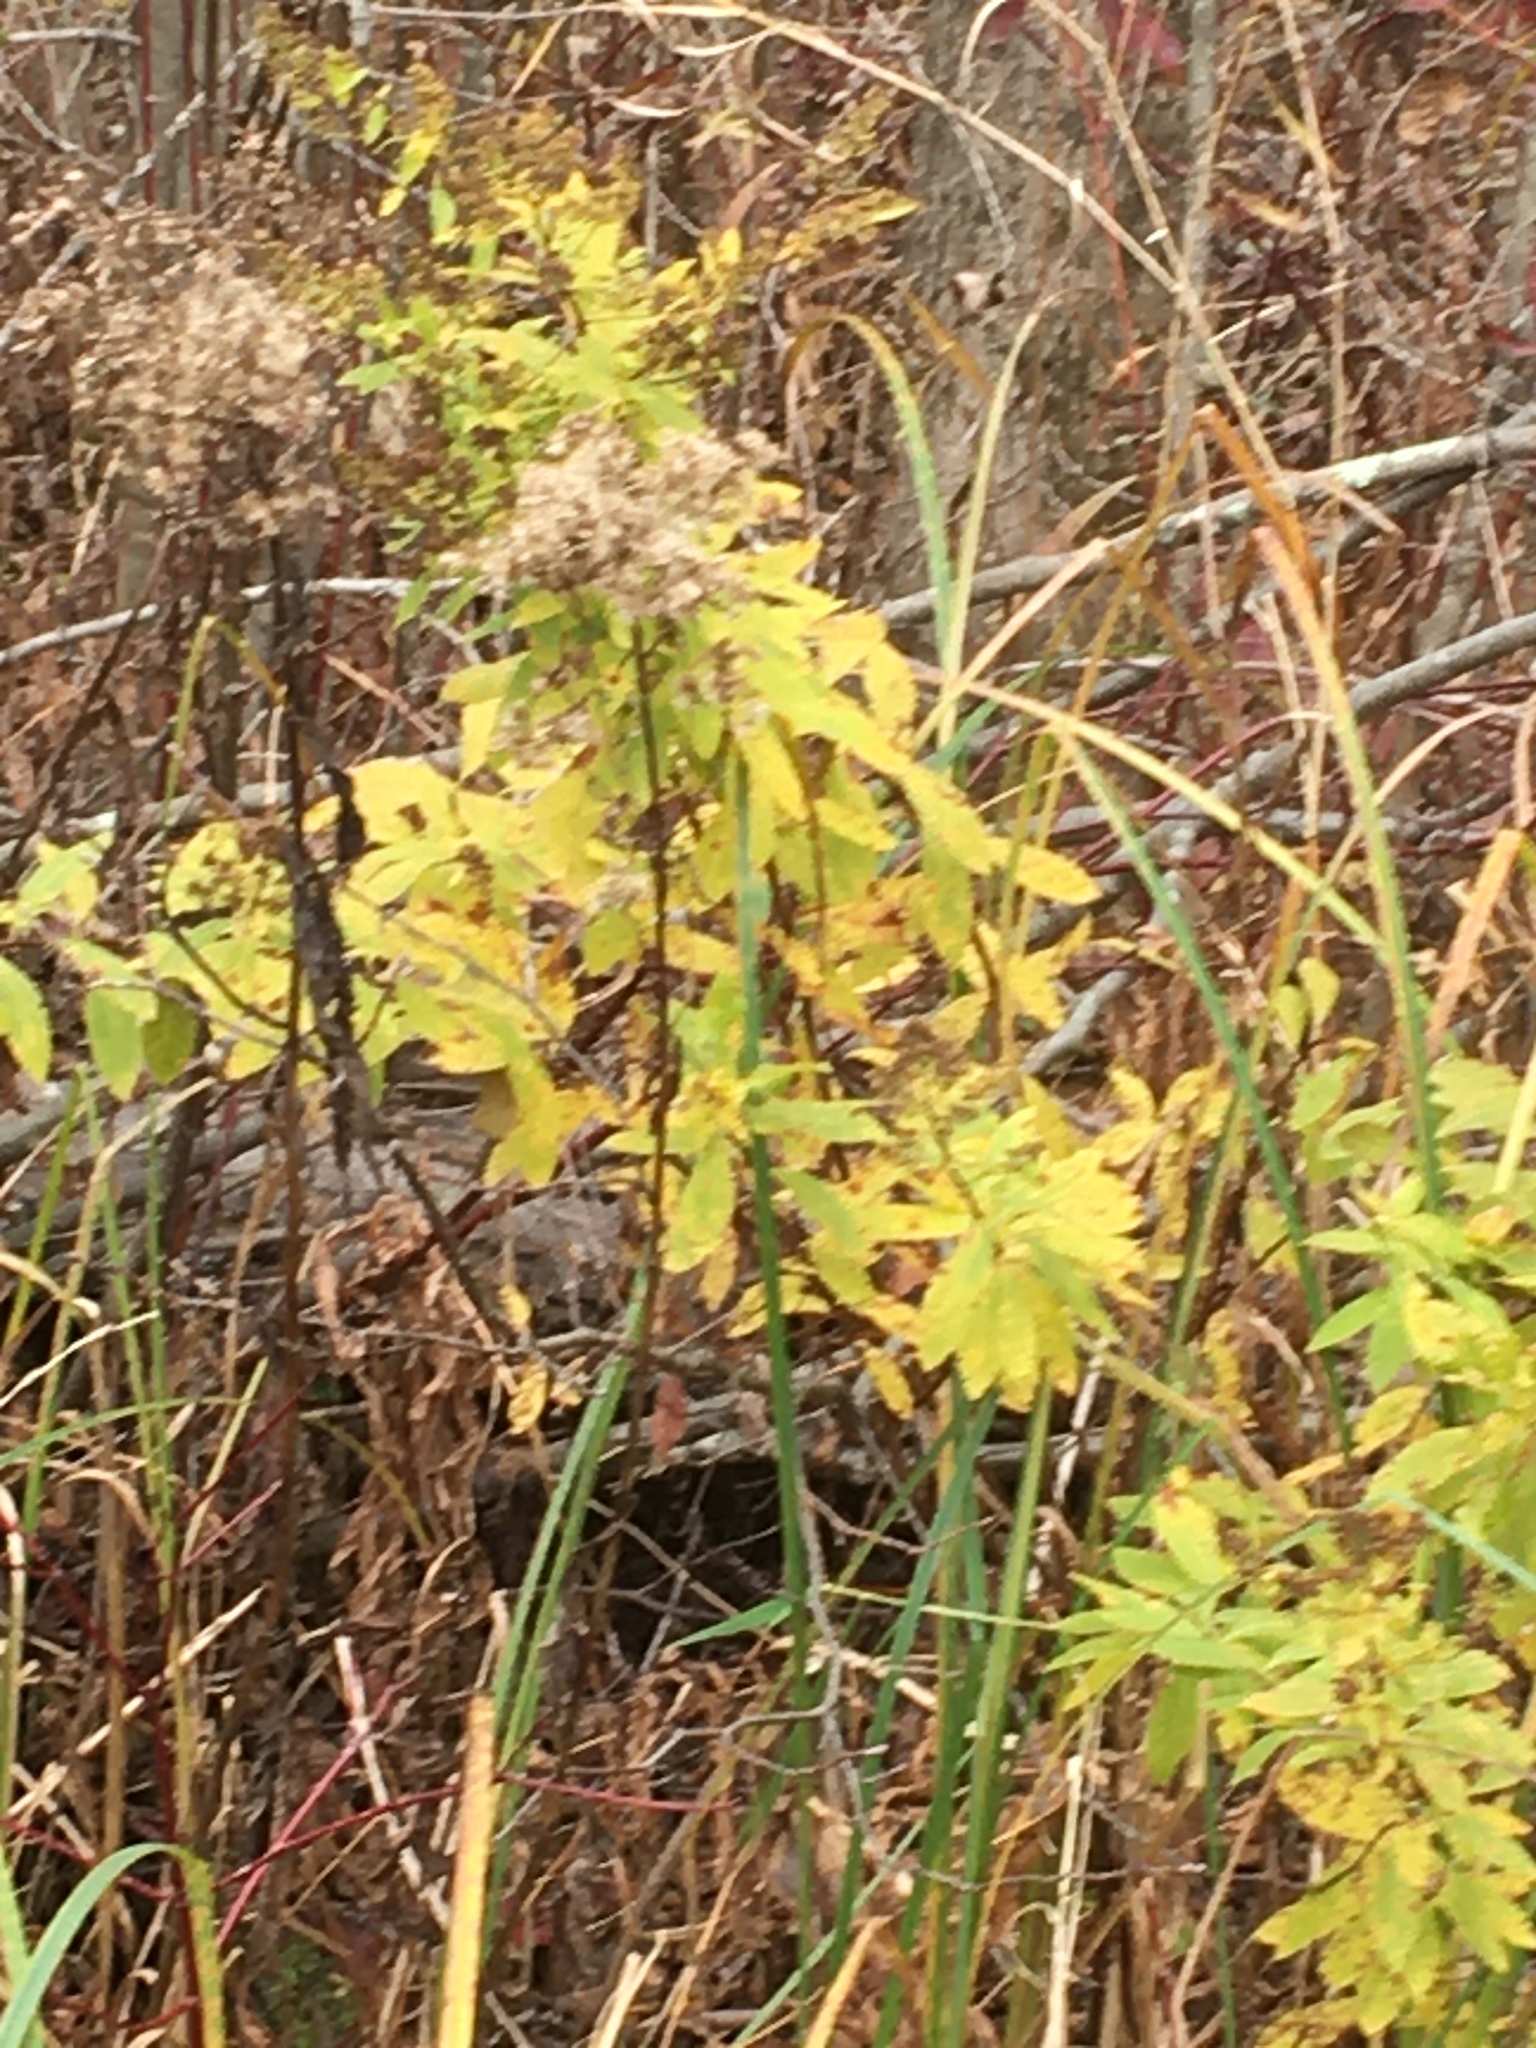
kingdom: Plantae
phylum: Tracheophyta
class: Magnoliopsida
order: Rosales
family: Rosaceae
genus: Spiraea
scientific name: Spiraea alba
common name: Pale bridewort
